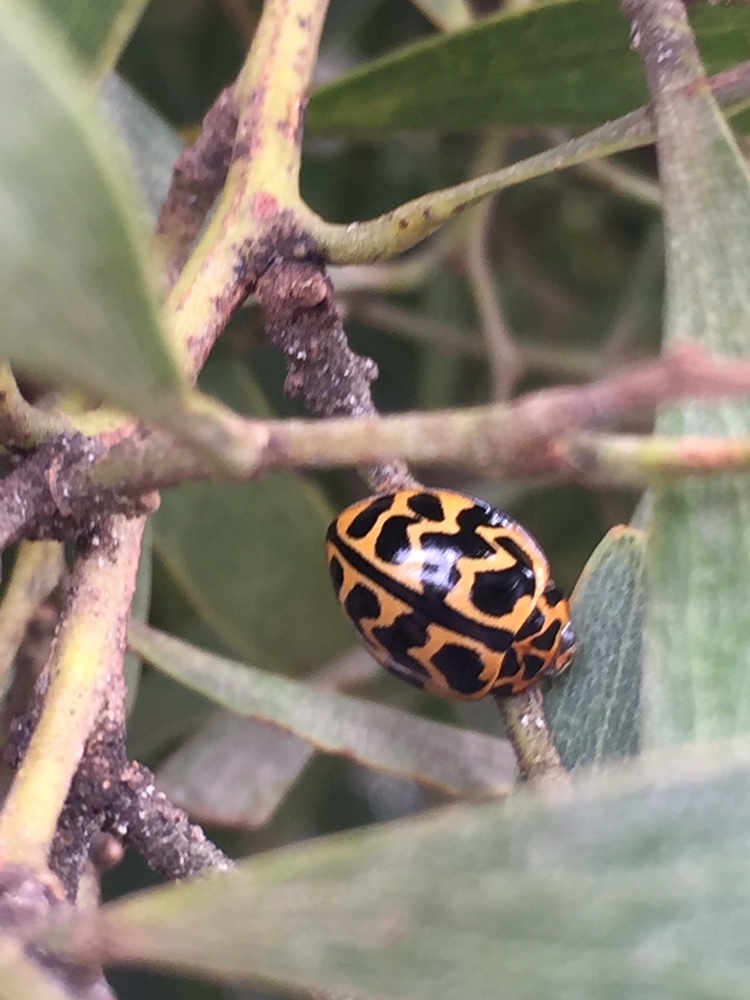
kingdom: Animalia
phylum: Arthropoda
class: Insecta
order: Coleoptera
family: Coccinellidae
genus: Cleobora
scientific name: Cleobora
